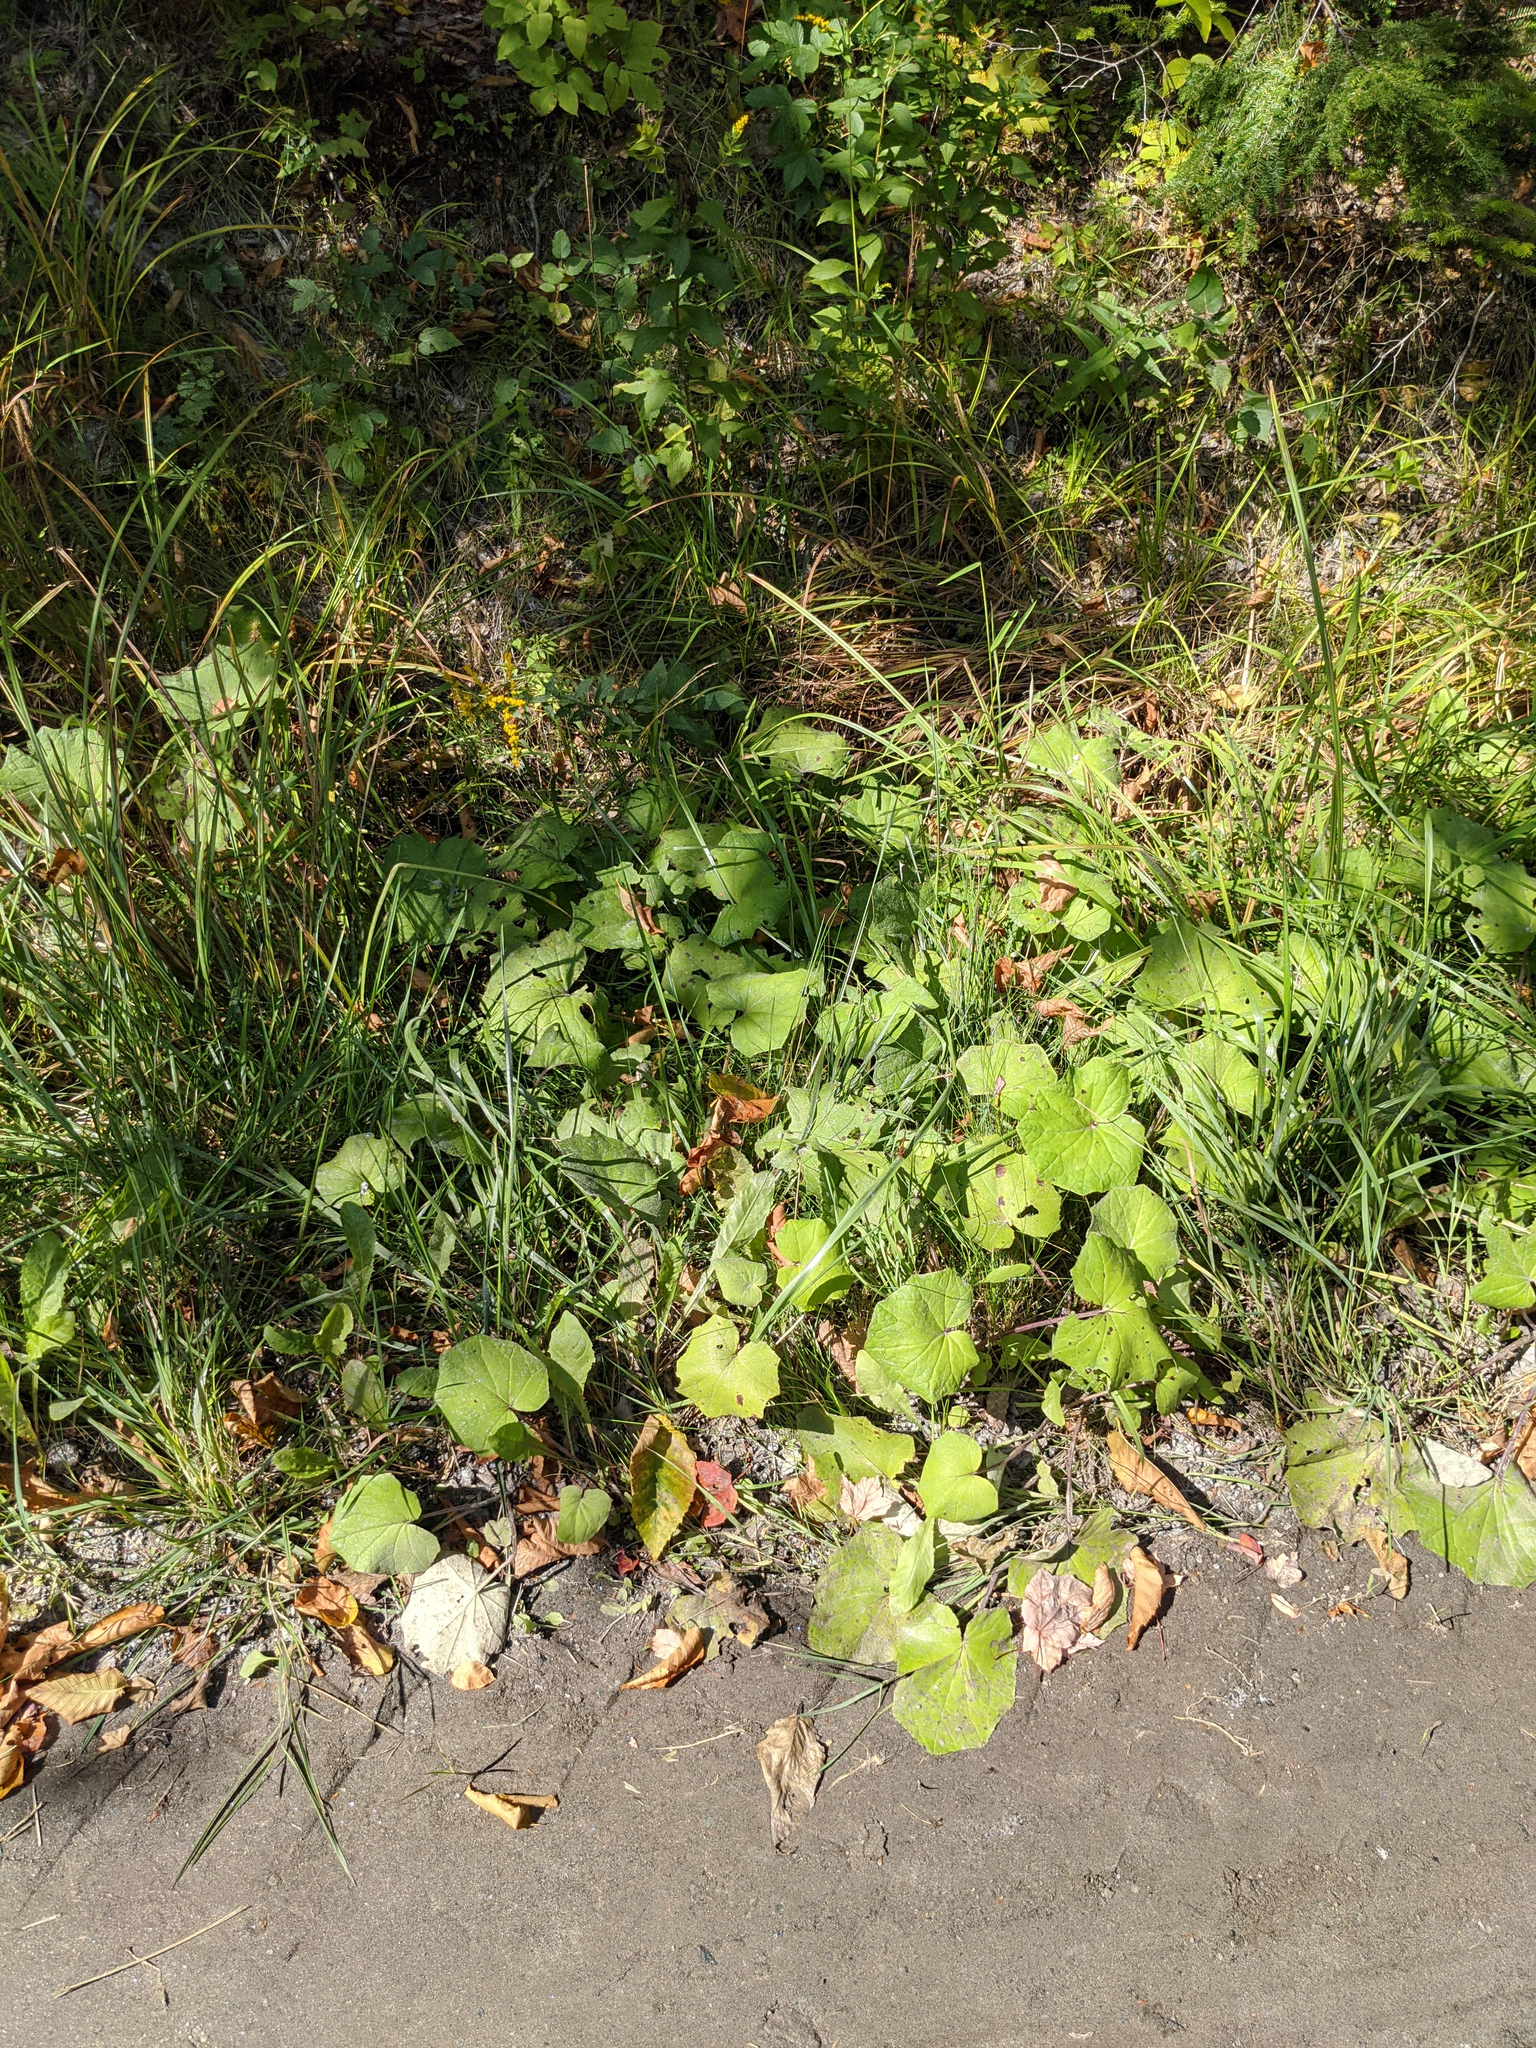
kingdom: Plantae
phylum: Tracheophyta
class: Magnoliopsida
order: Asterales
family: Asteraceae
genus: Tussilago
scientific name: Tussilago farfara
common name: Coltsfoot
